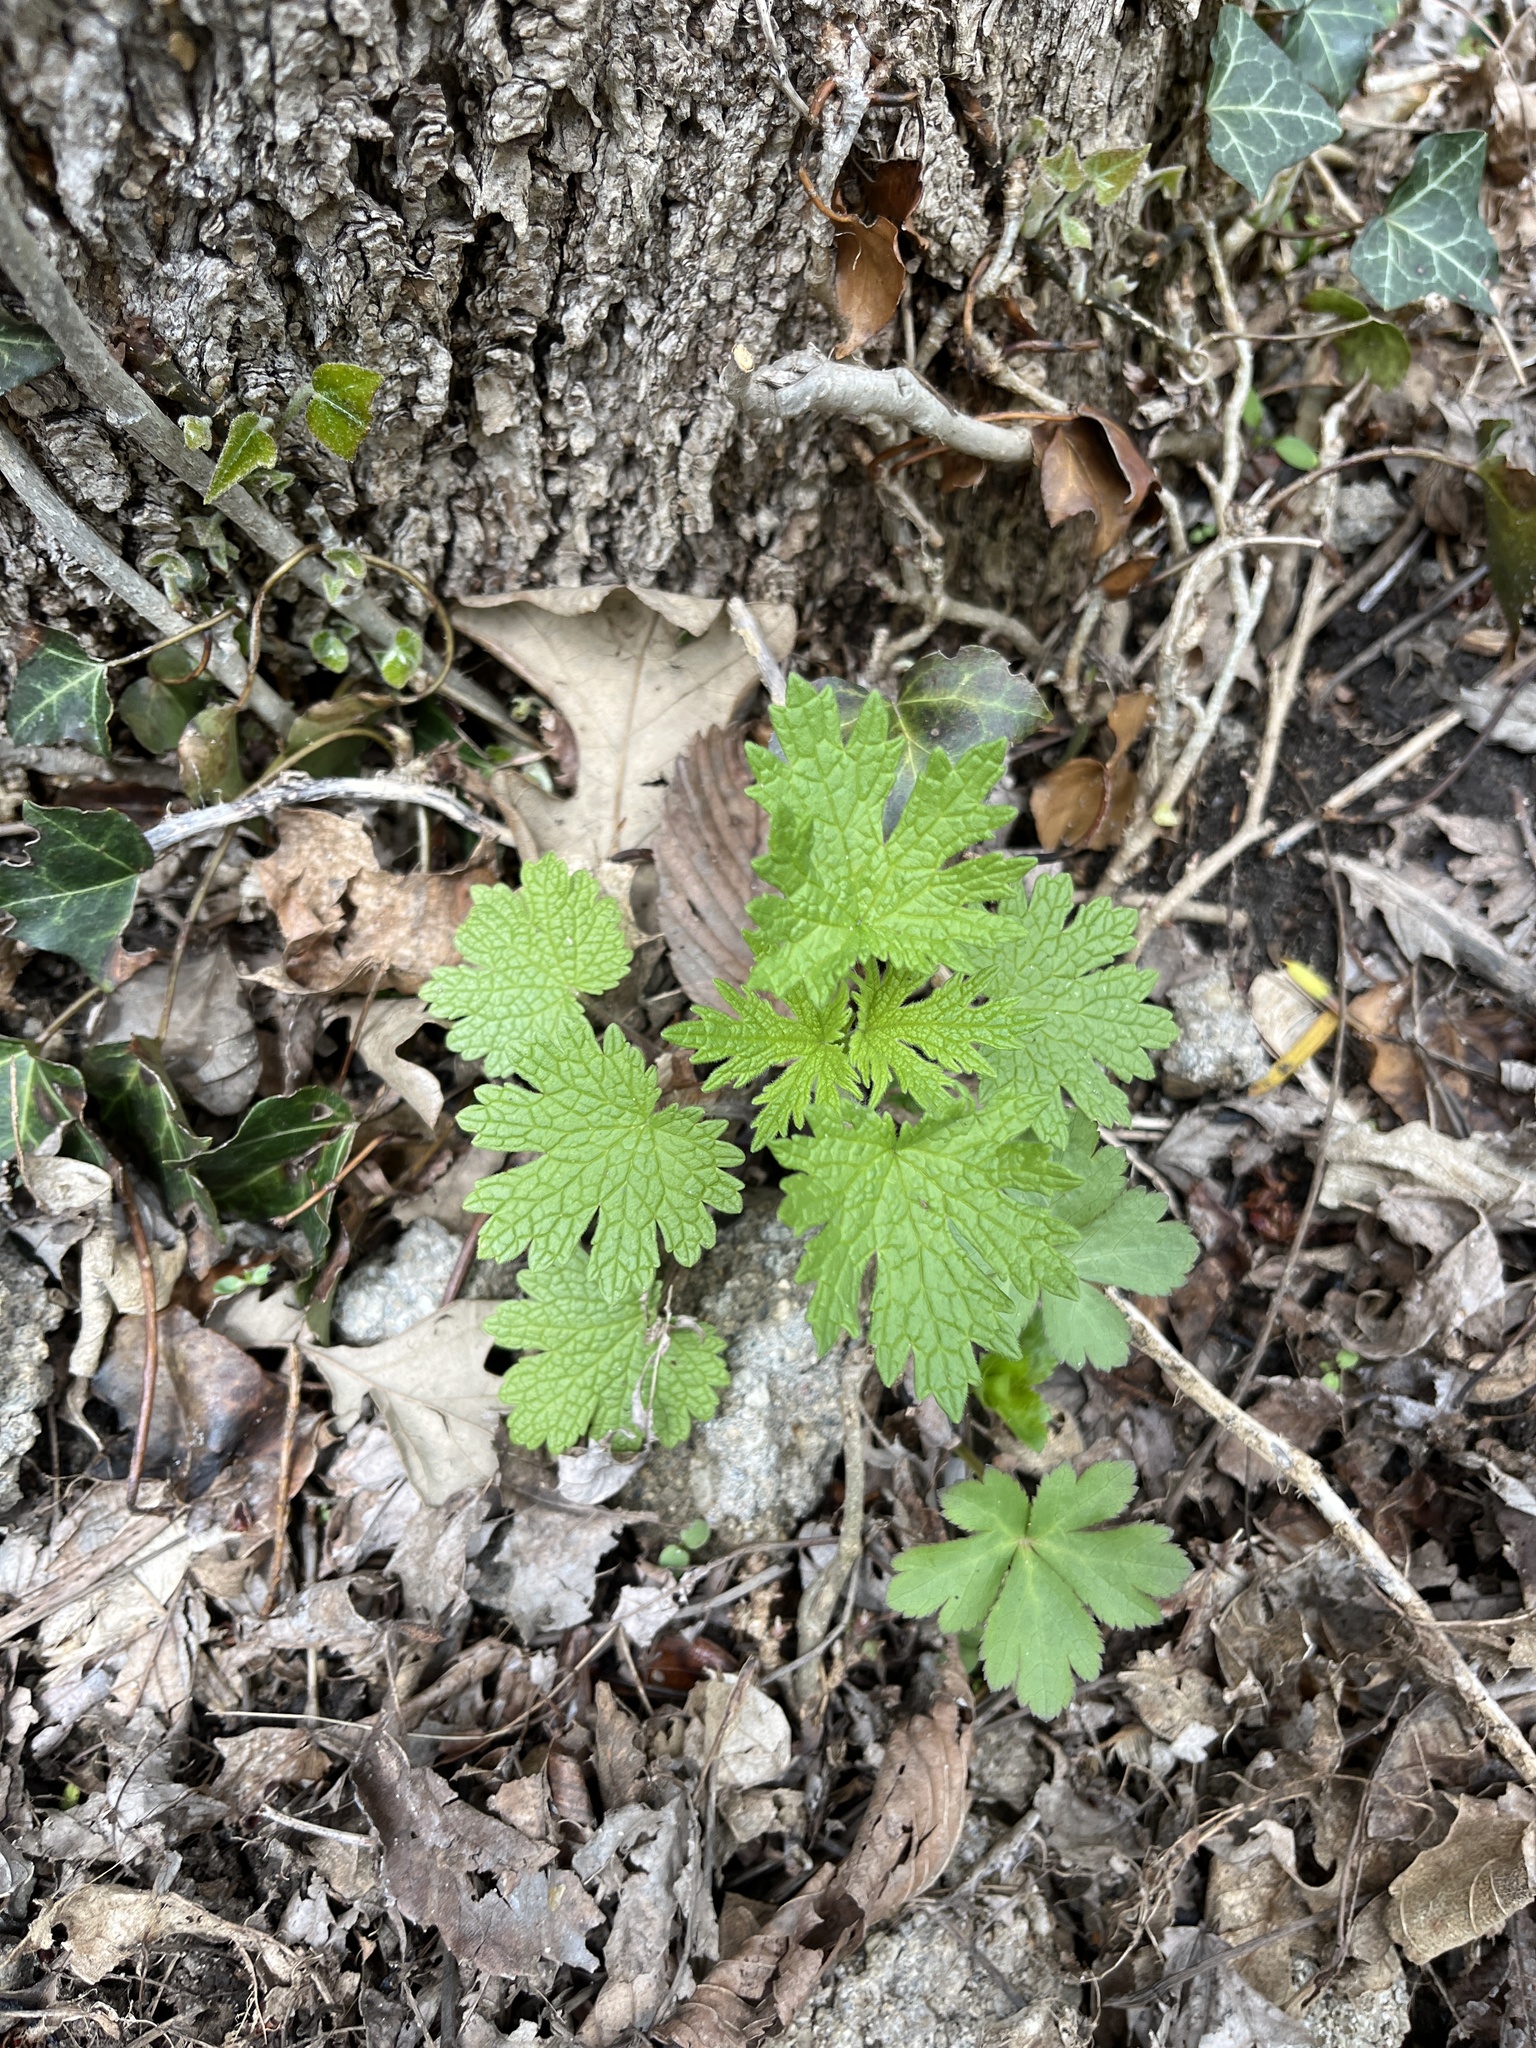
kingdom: Plantae
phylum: Tracheophyta
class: Magnoliopsida
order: Lamiales
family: Lamiaceae
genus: Leonurus
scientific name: Leonurus cardiaca
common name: Motherwort
